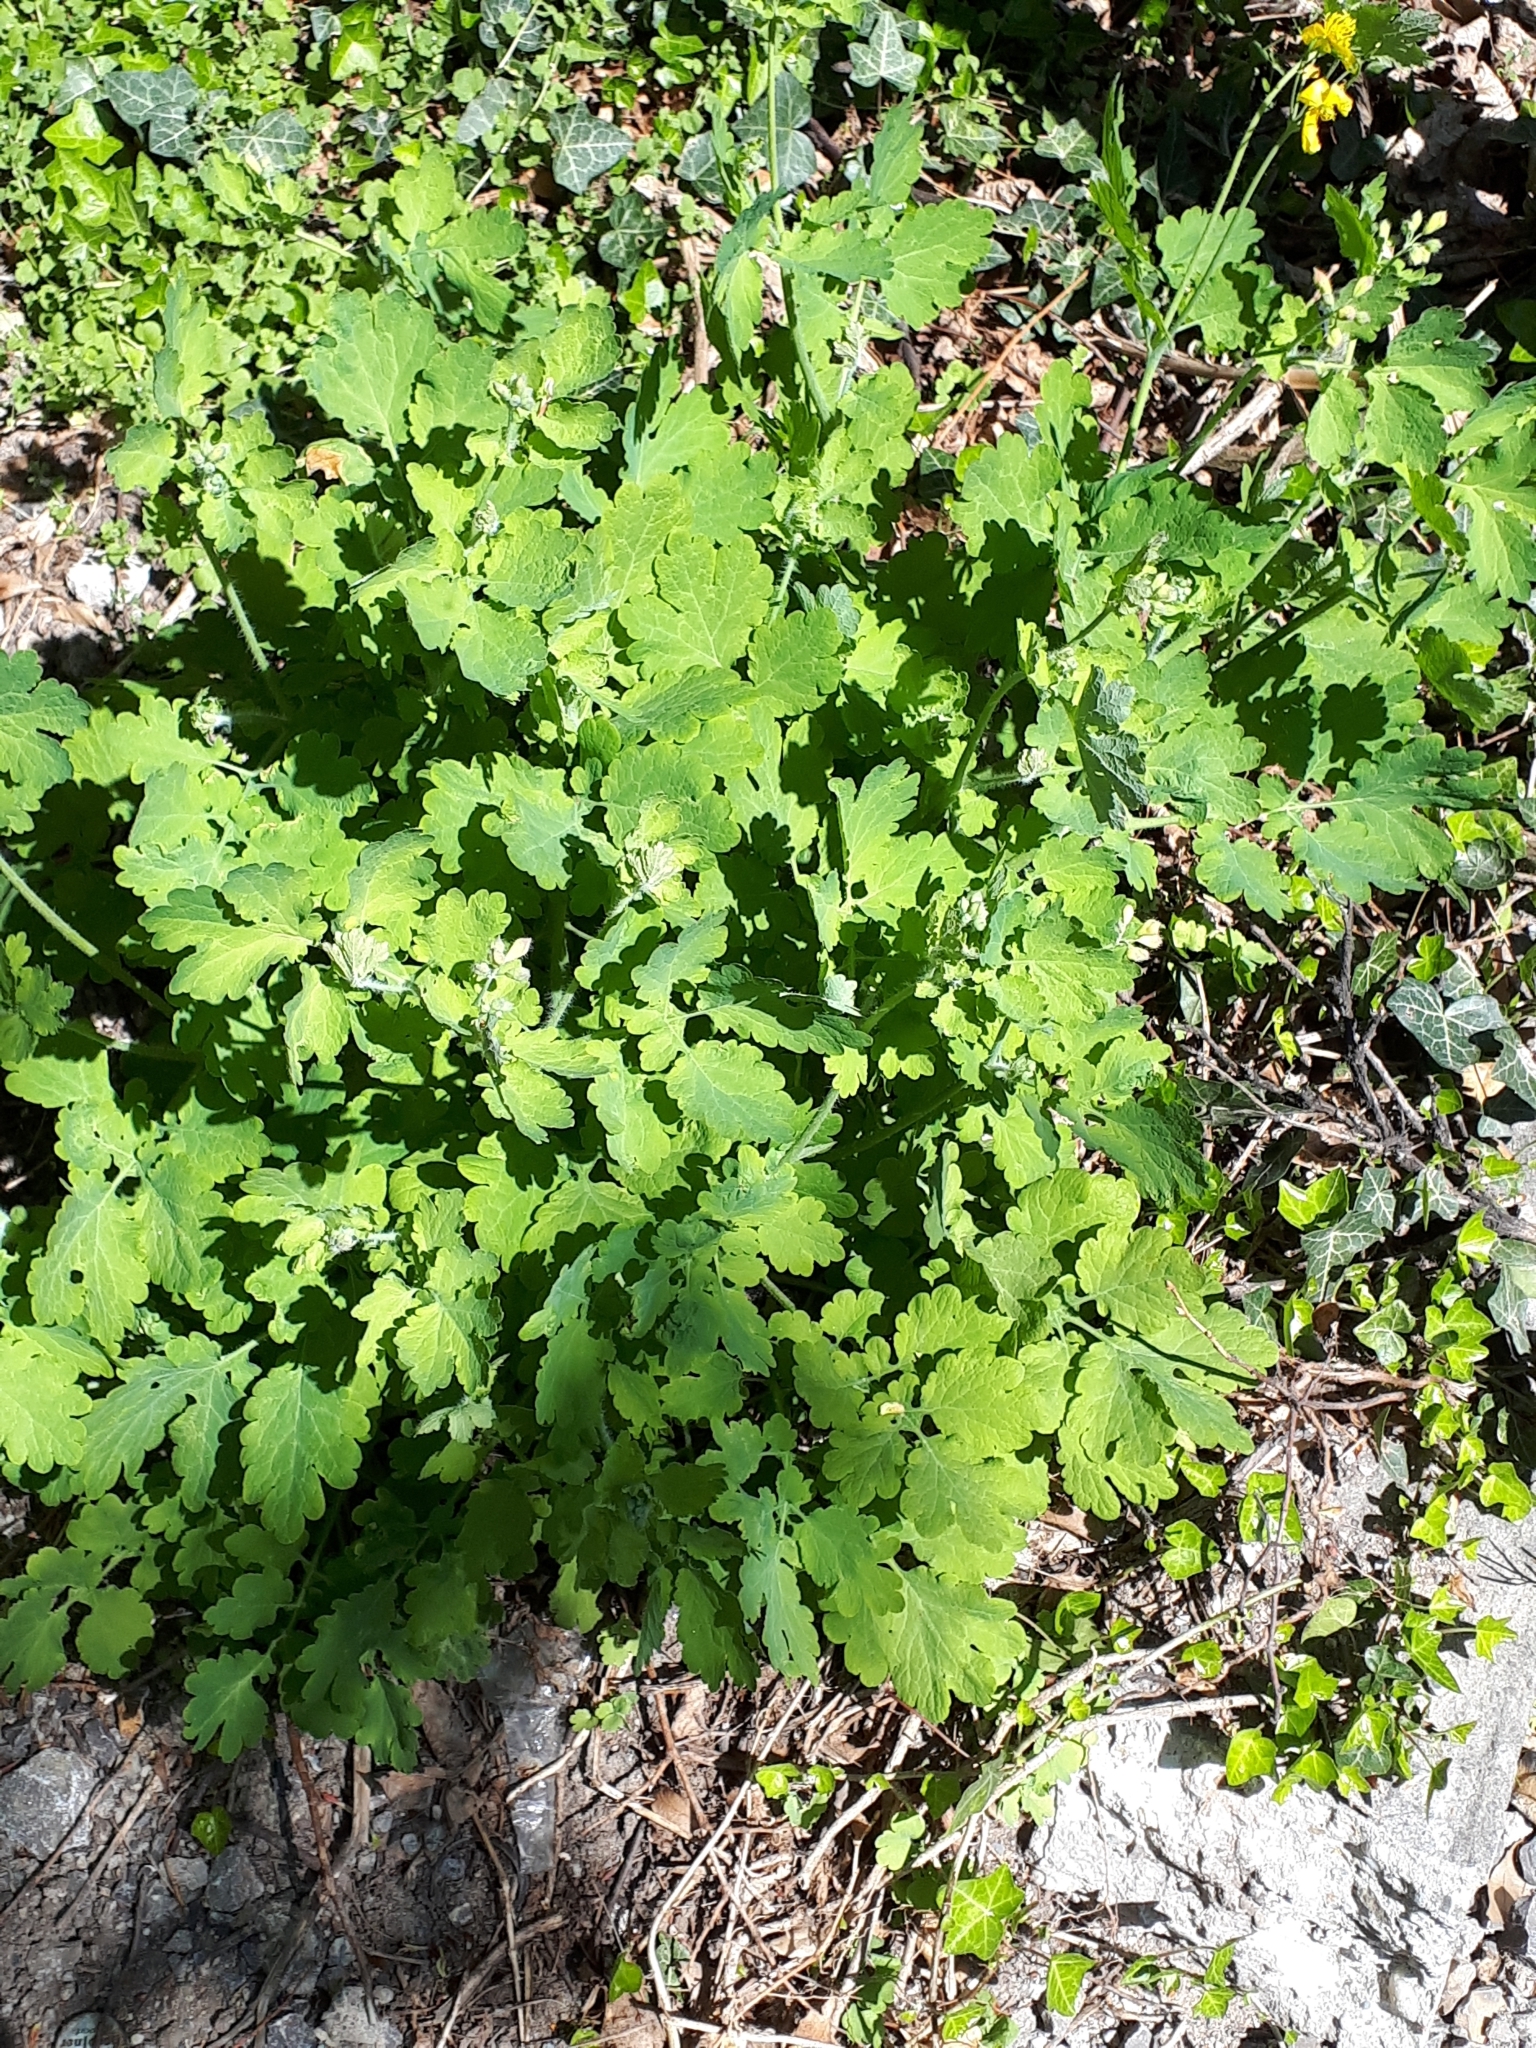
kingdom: Plantae
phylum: Tracheophyta
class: Magnoliopsida
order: Ranunculales
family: Papaveraceae
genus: Chelidonium
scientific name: Chelidonium majus
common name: Greater celandine
